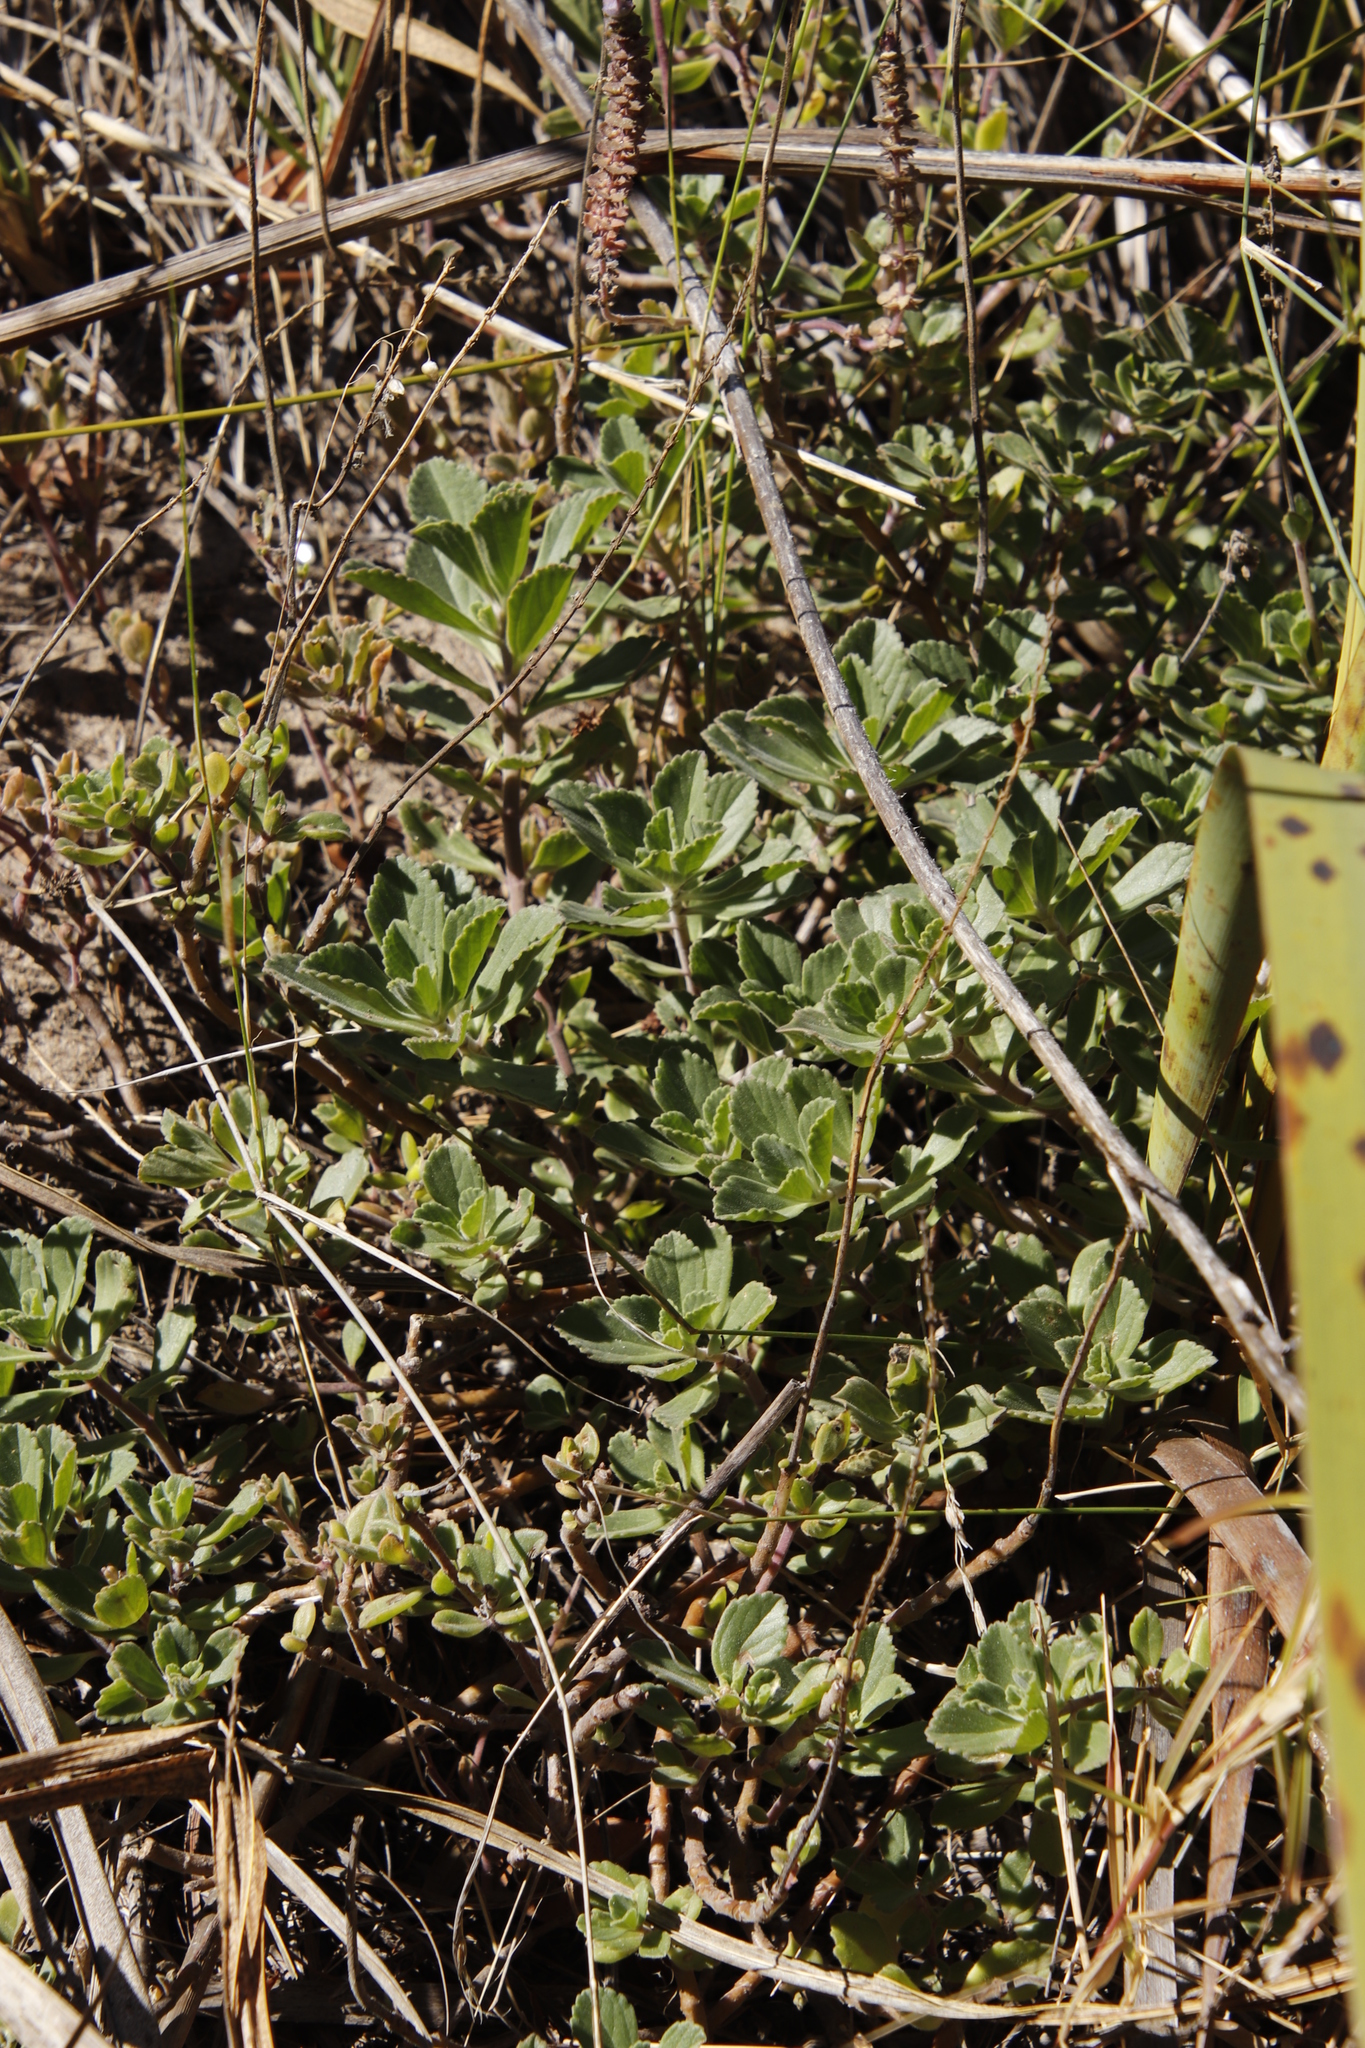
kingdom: Plantae
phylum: Tracheophyta
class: Magnoliopsida
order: Lamiales
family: Lamiaceae
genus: Coleus
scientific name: Coleus neochilus
